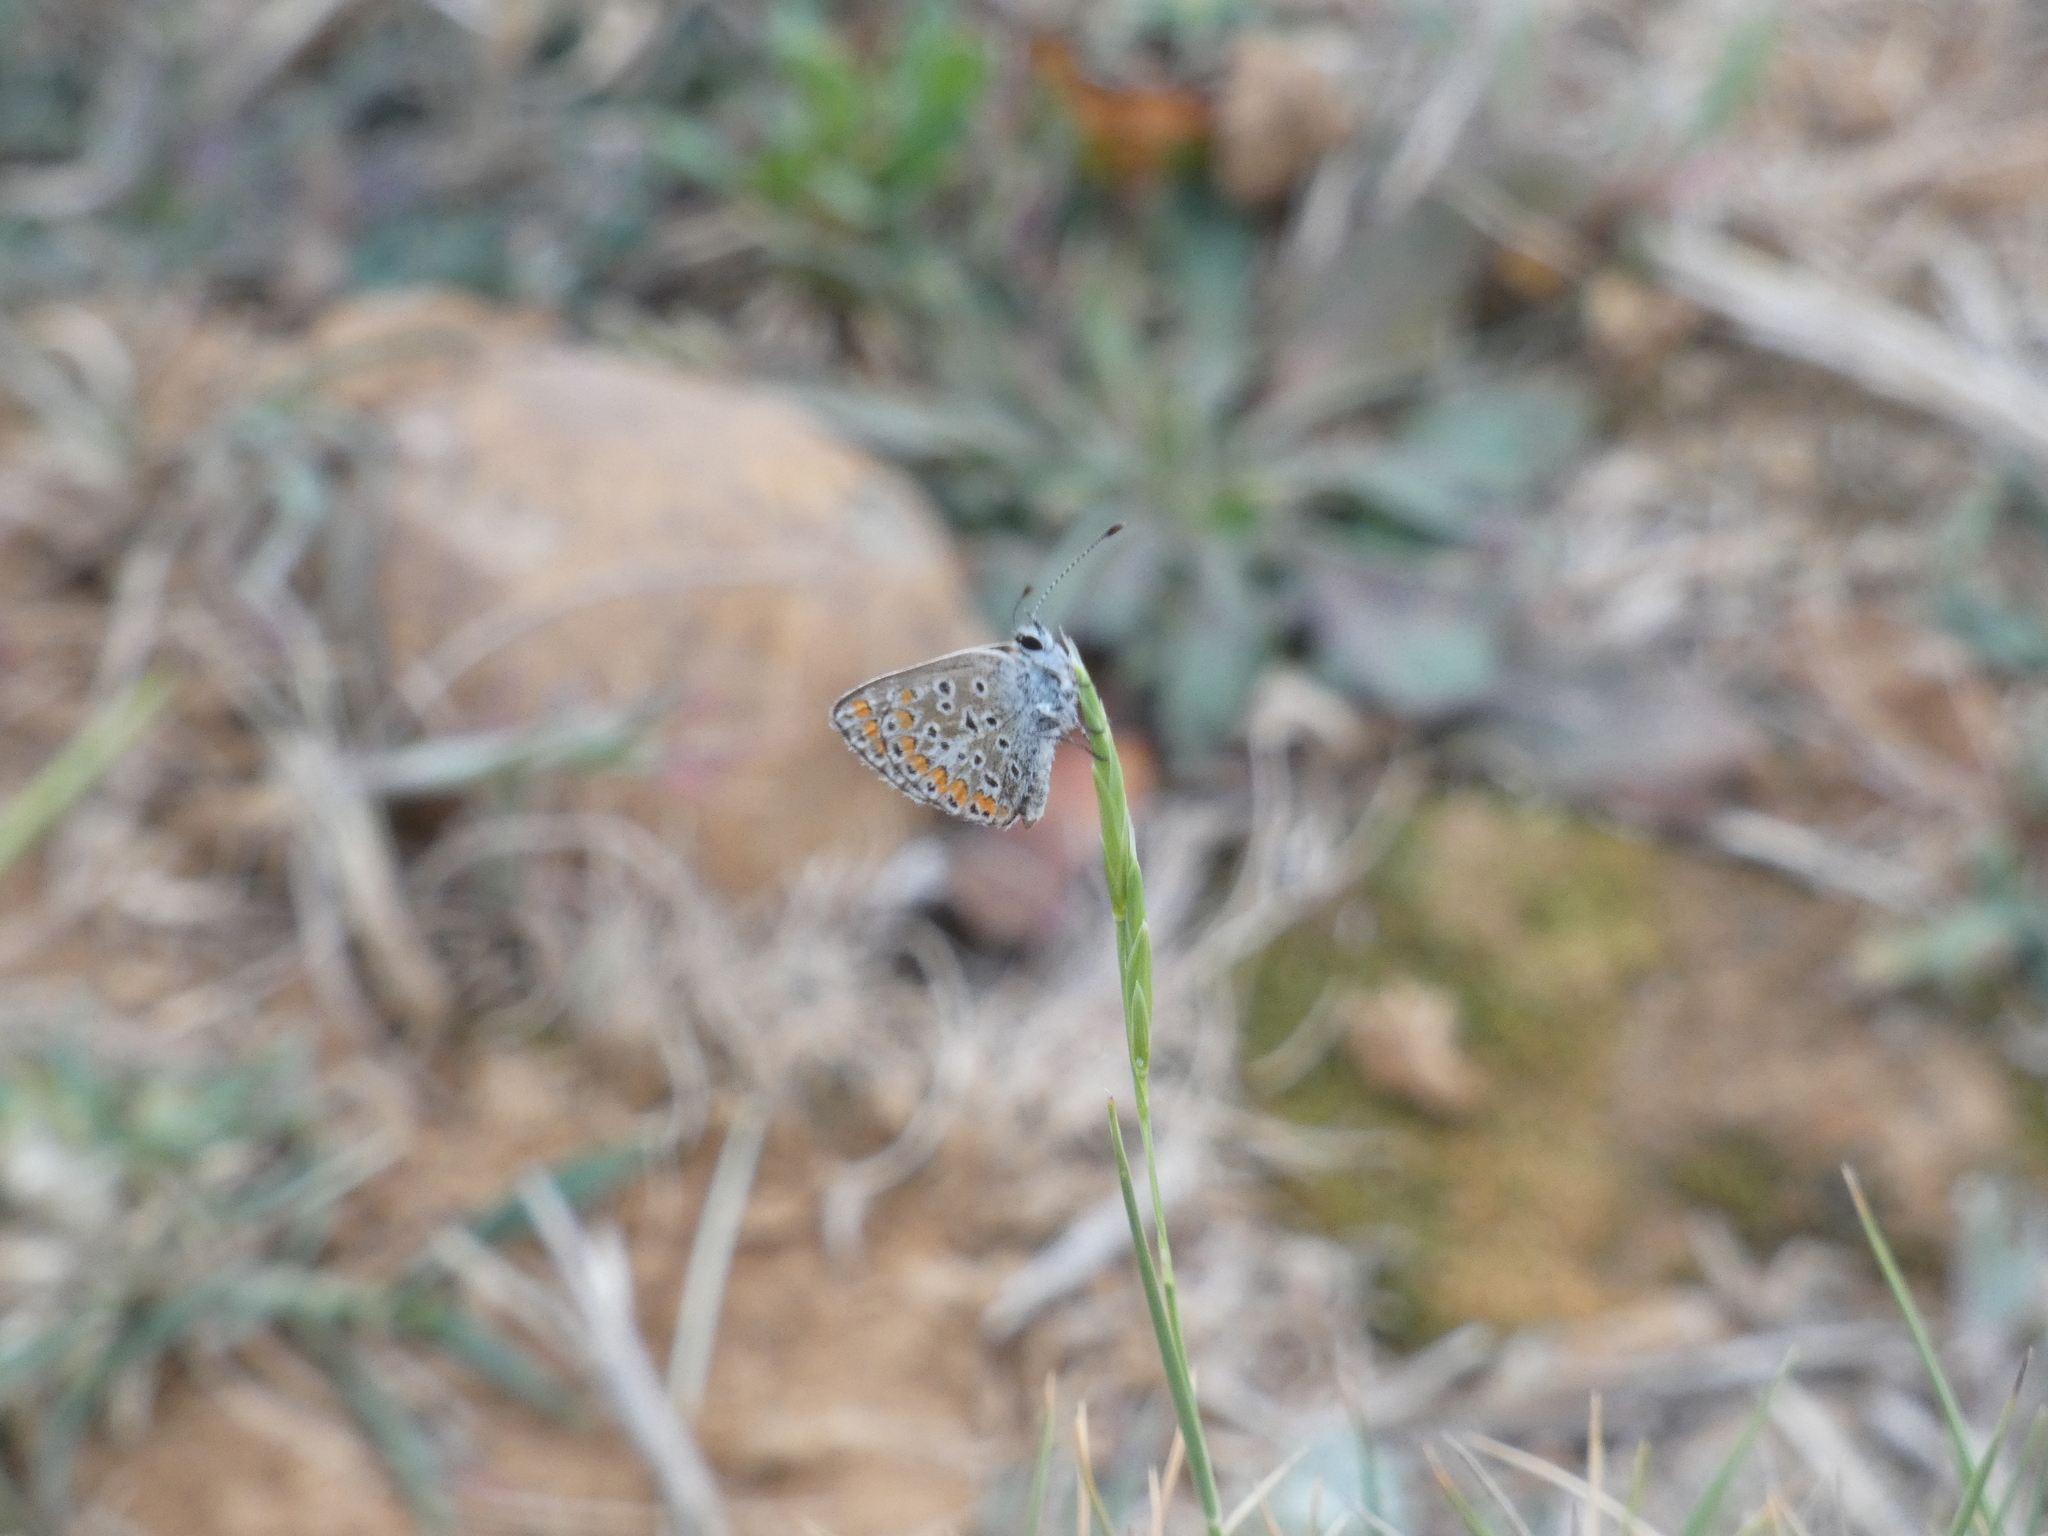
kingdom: Animalia
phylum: Arthropoda
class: Insecta
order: Lepidoptera
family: Lycaenidae
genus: Aricia
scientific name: Aricia agestis
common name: Brown argus
